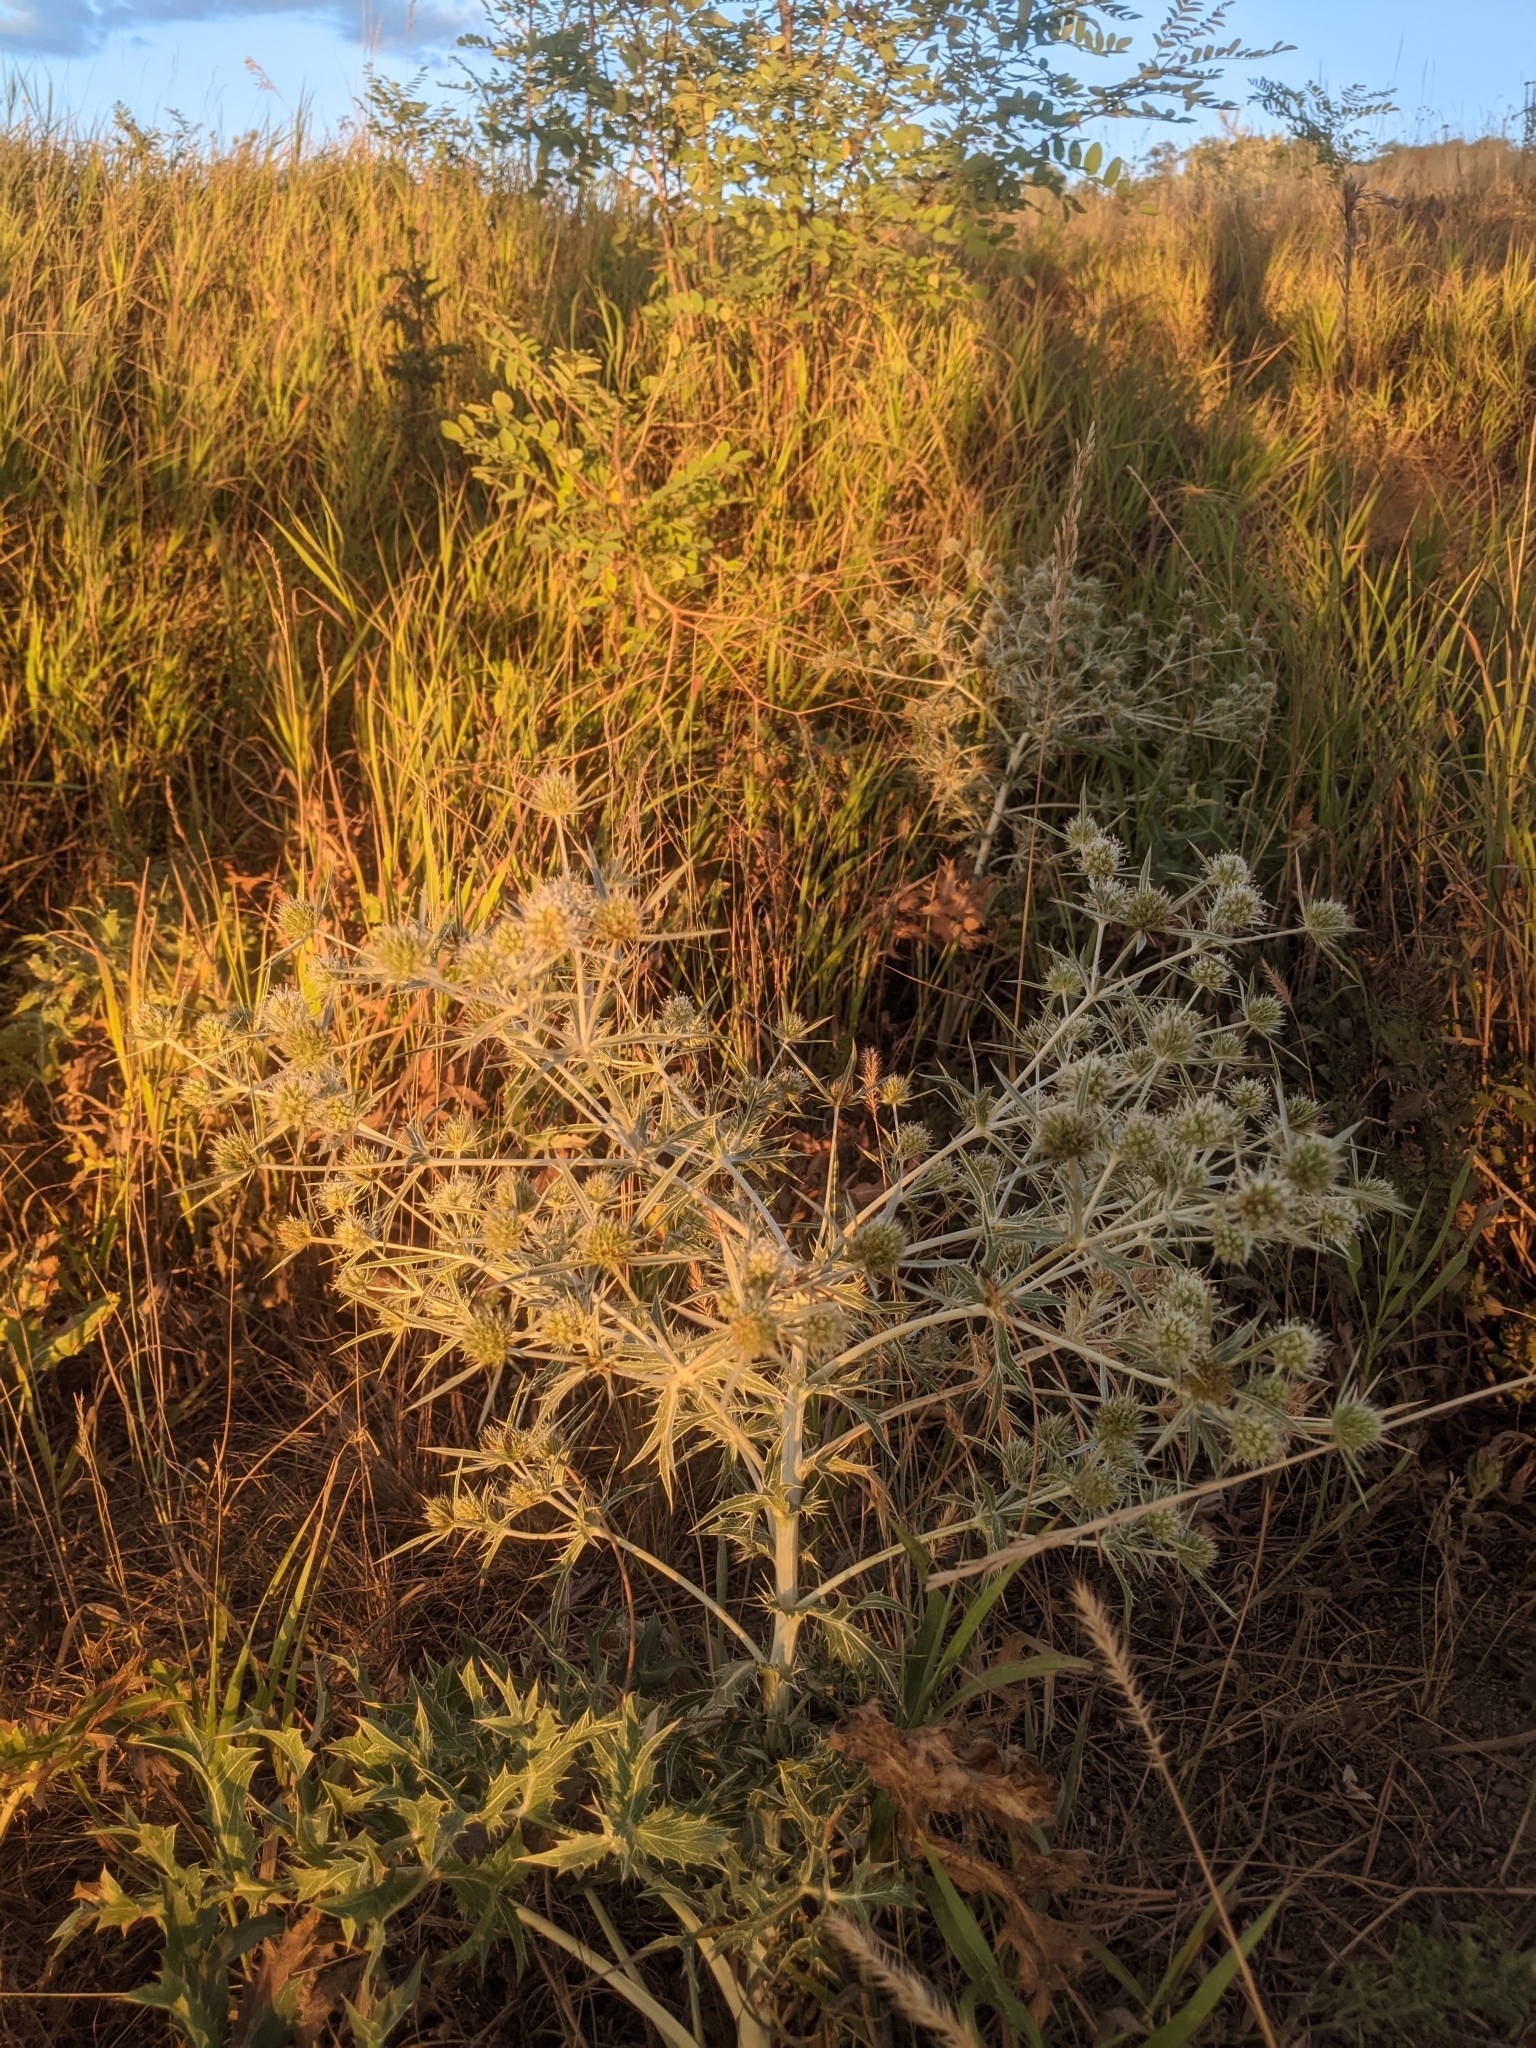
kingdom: Plantae
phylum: Tracheophyta
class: Magnoliopsida
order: Apiales
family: Apiaceae
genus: Eryngium
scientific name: Eryngium campestre
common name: Field eryngo
